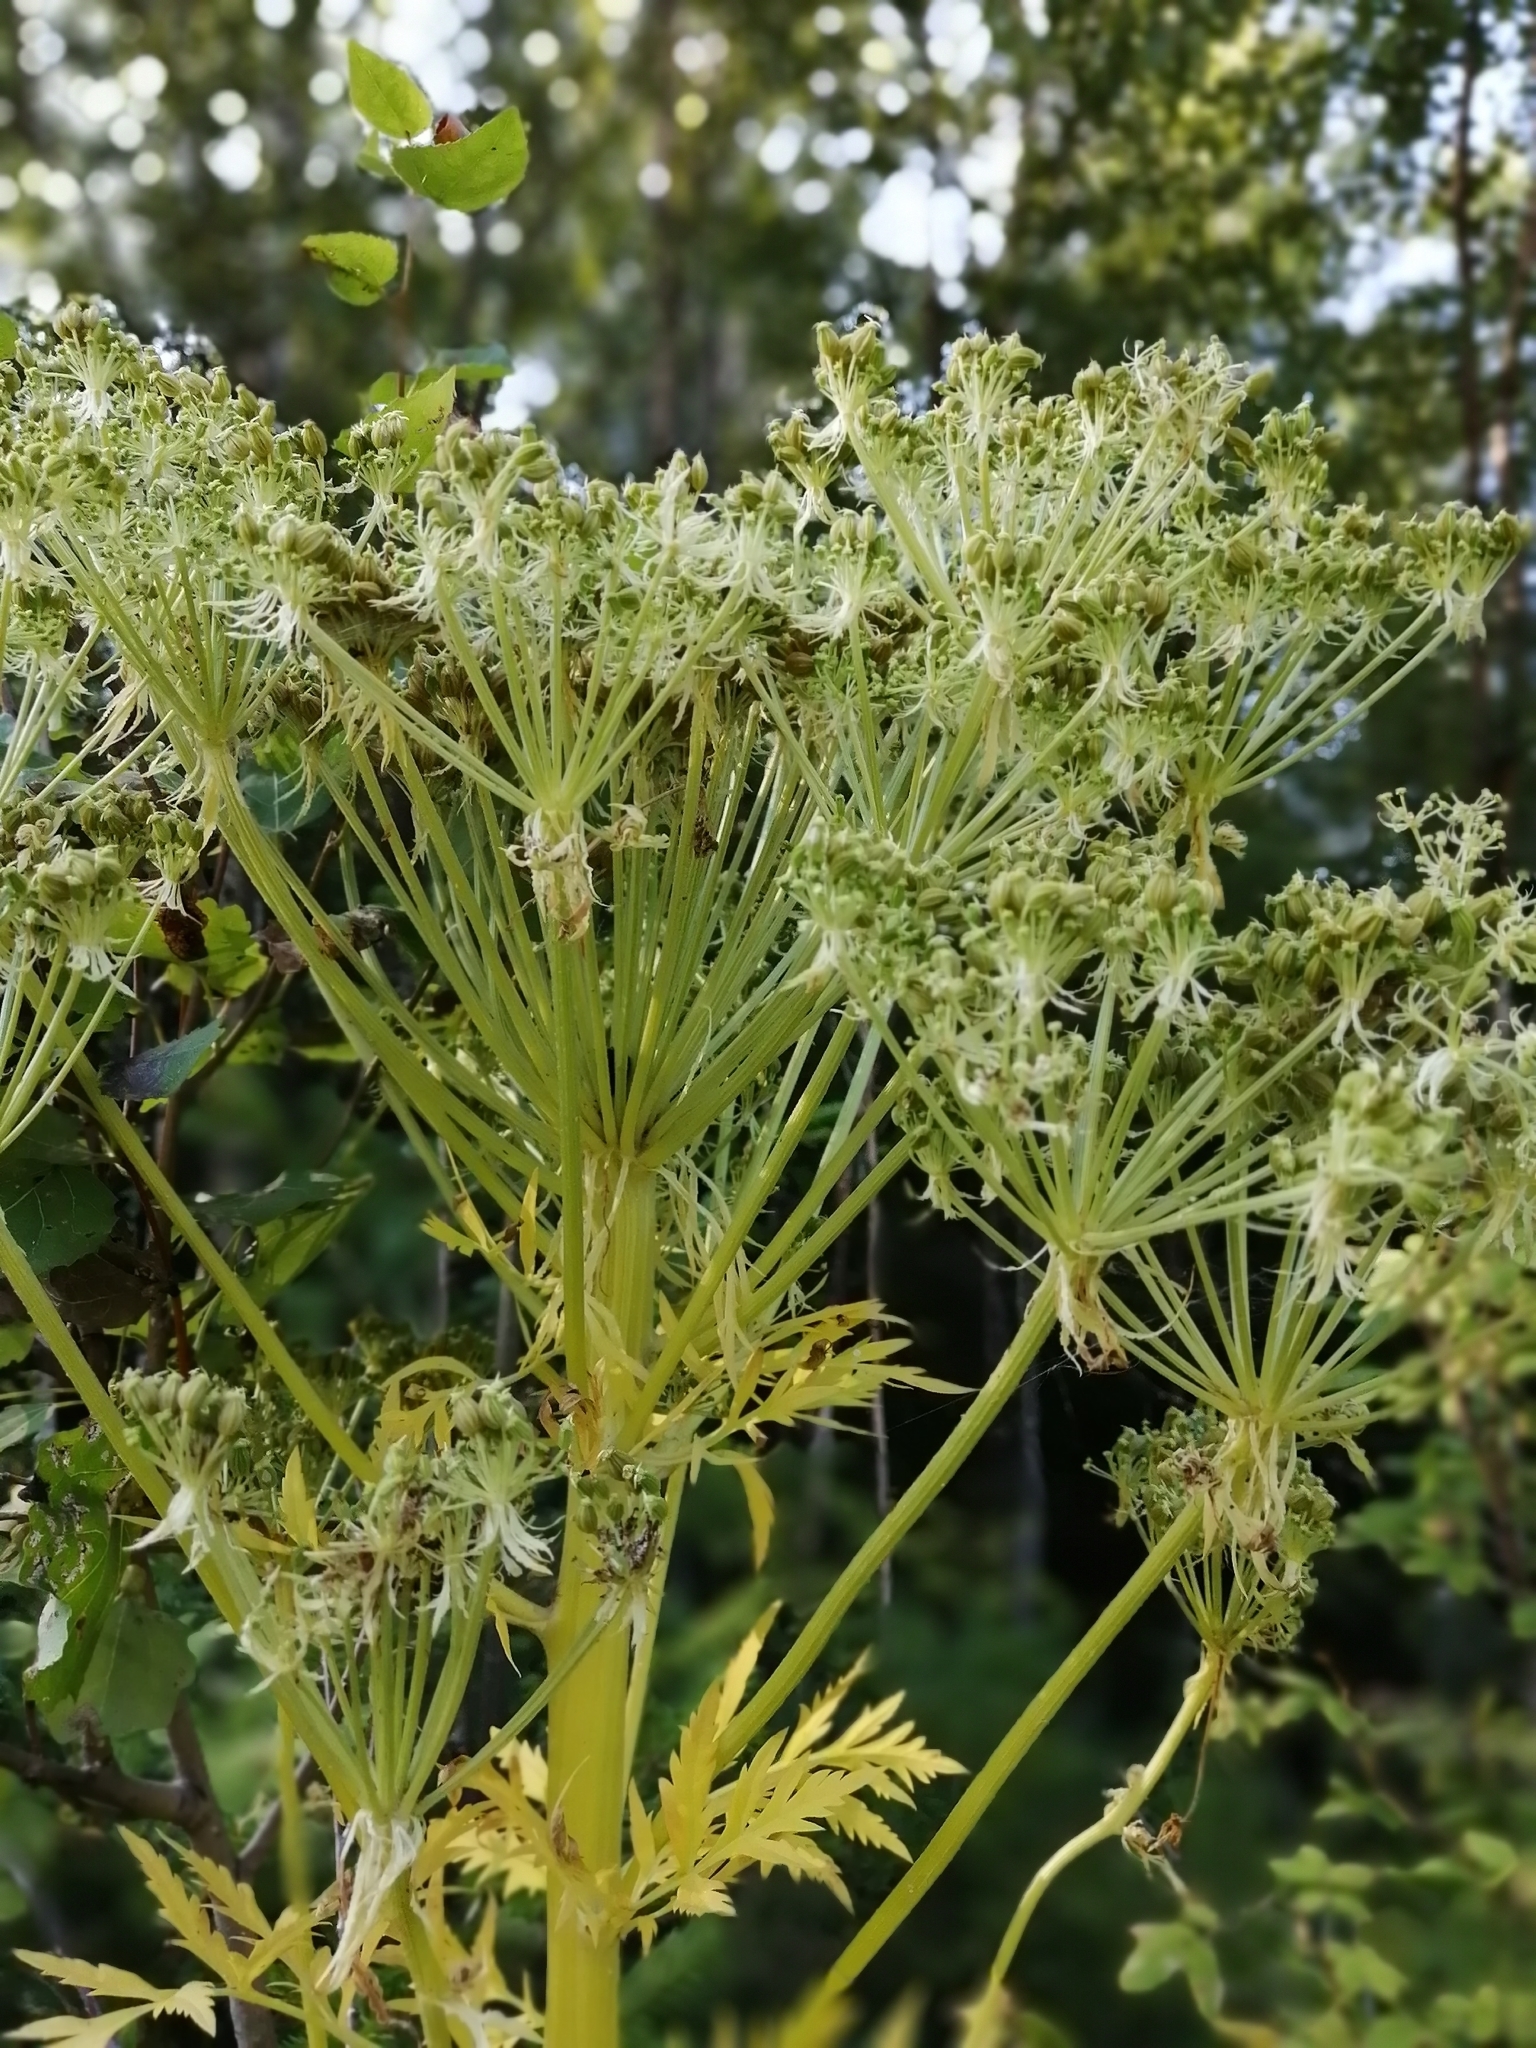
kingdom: Plantae
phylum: Tracheophyta
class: Magnoliopsida
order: Apiales
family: Apiaceae
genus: Pleurospermum
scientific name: Pleurospermum uralense
